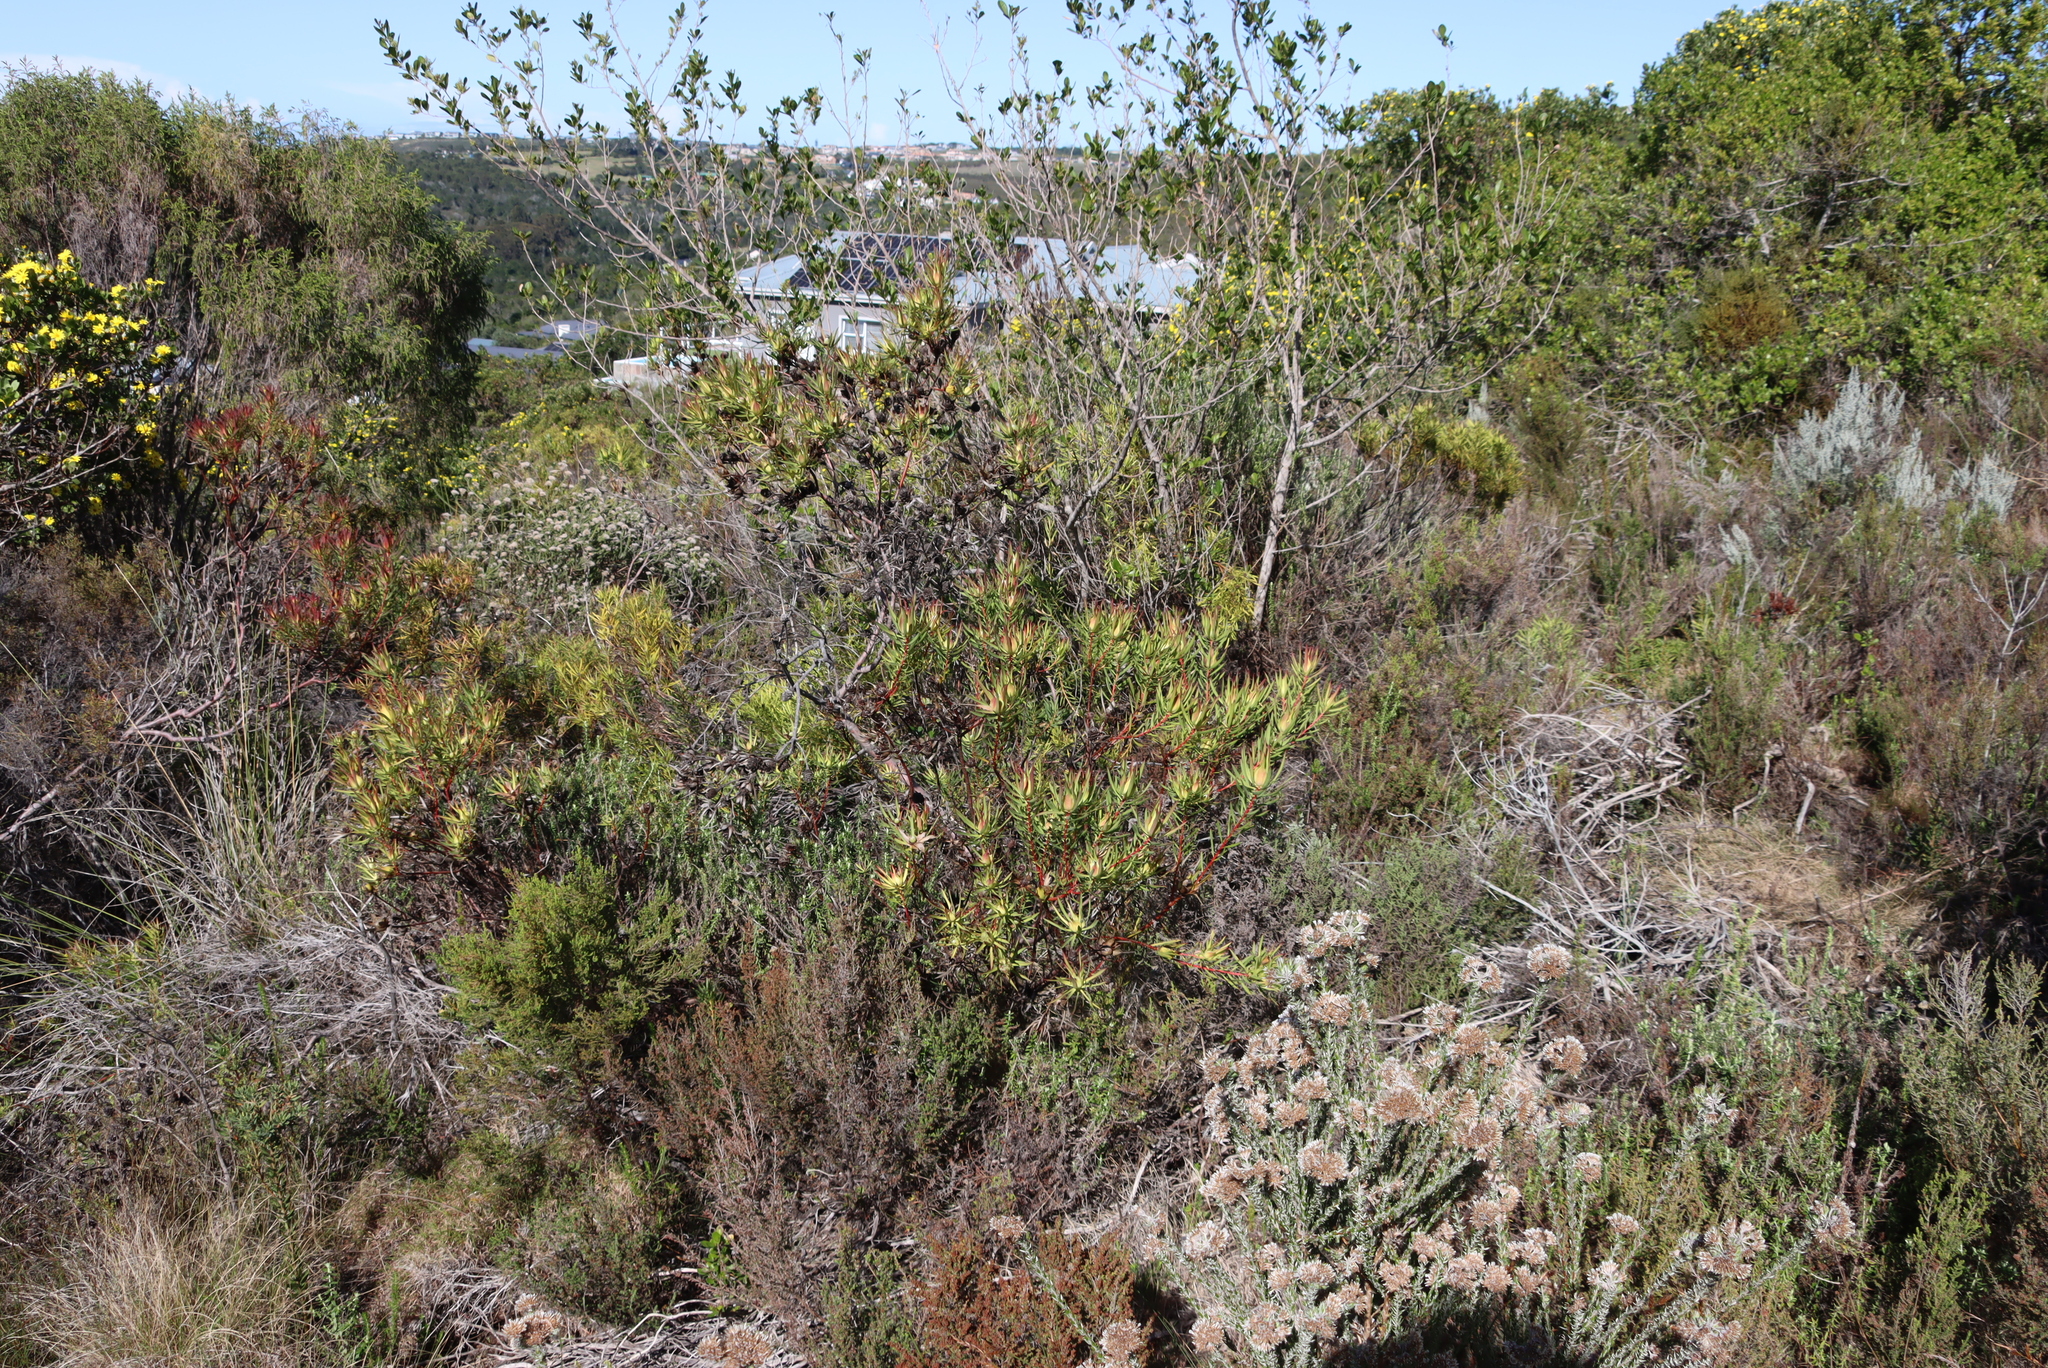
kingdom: Plantae
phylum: Tracheophyta
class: Magnoliopsida
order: Proteales
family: Proteaceae
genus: Leucadendron
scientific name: Leucadendron salignum
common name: Common sunshine conebush
